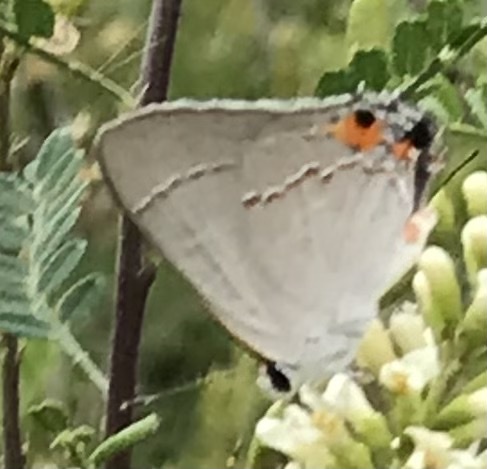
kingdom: Animalia
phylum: Arthropoda
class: Insecta
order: Lepidoptera
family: Lycaenidae
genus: Strymon
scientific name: Strymon melinus
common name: Gray hairstreak
